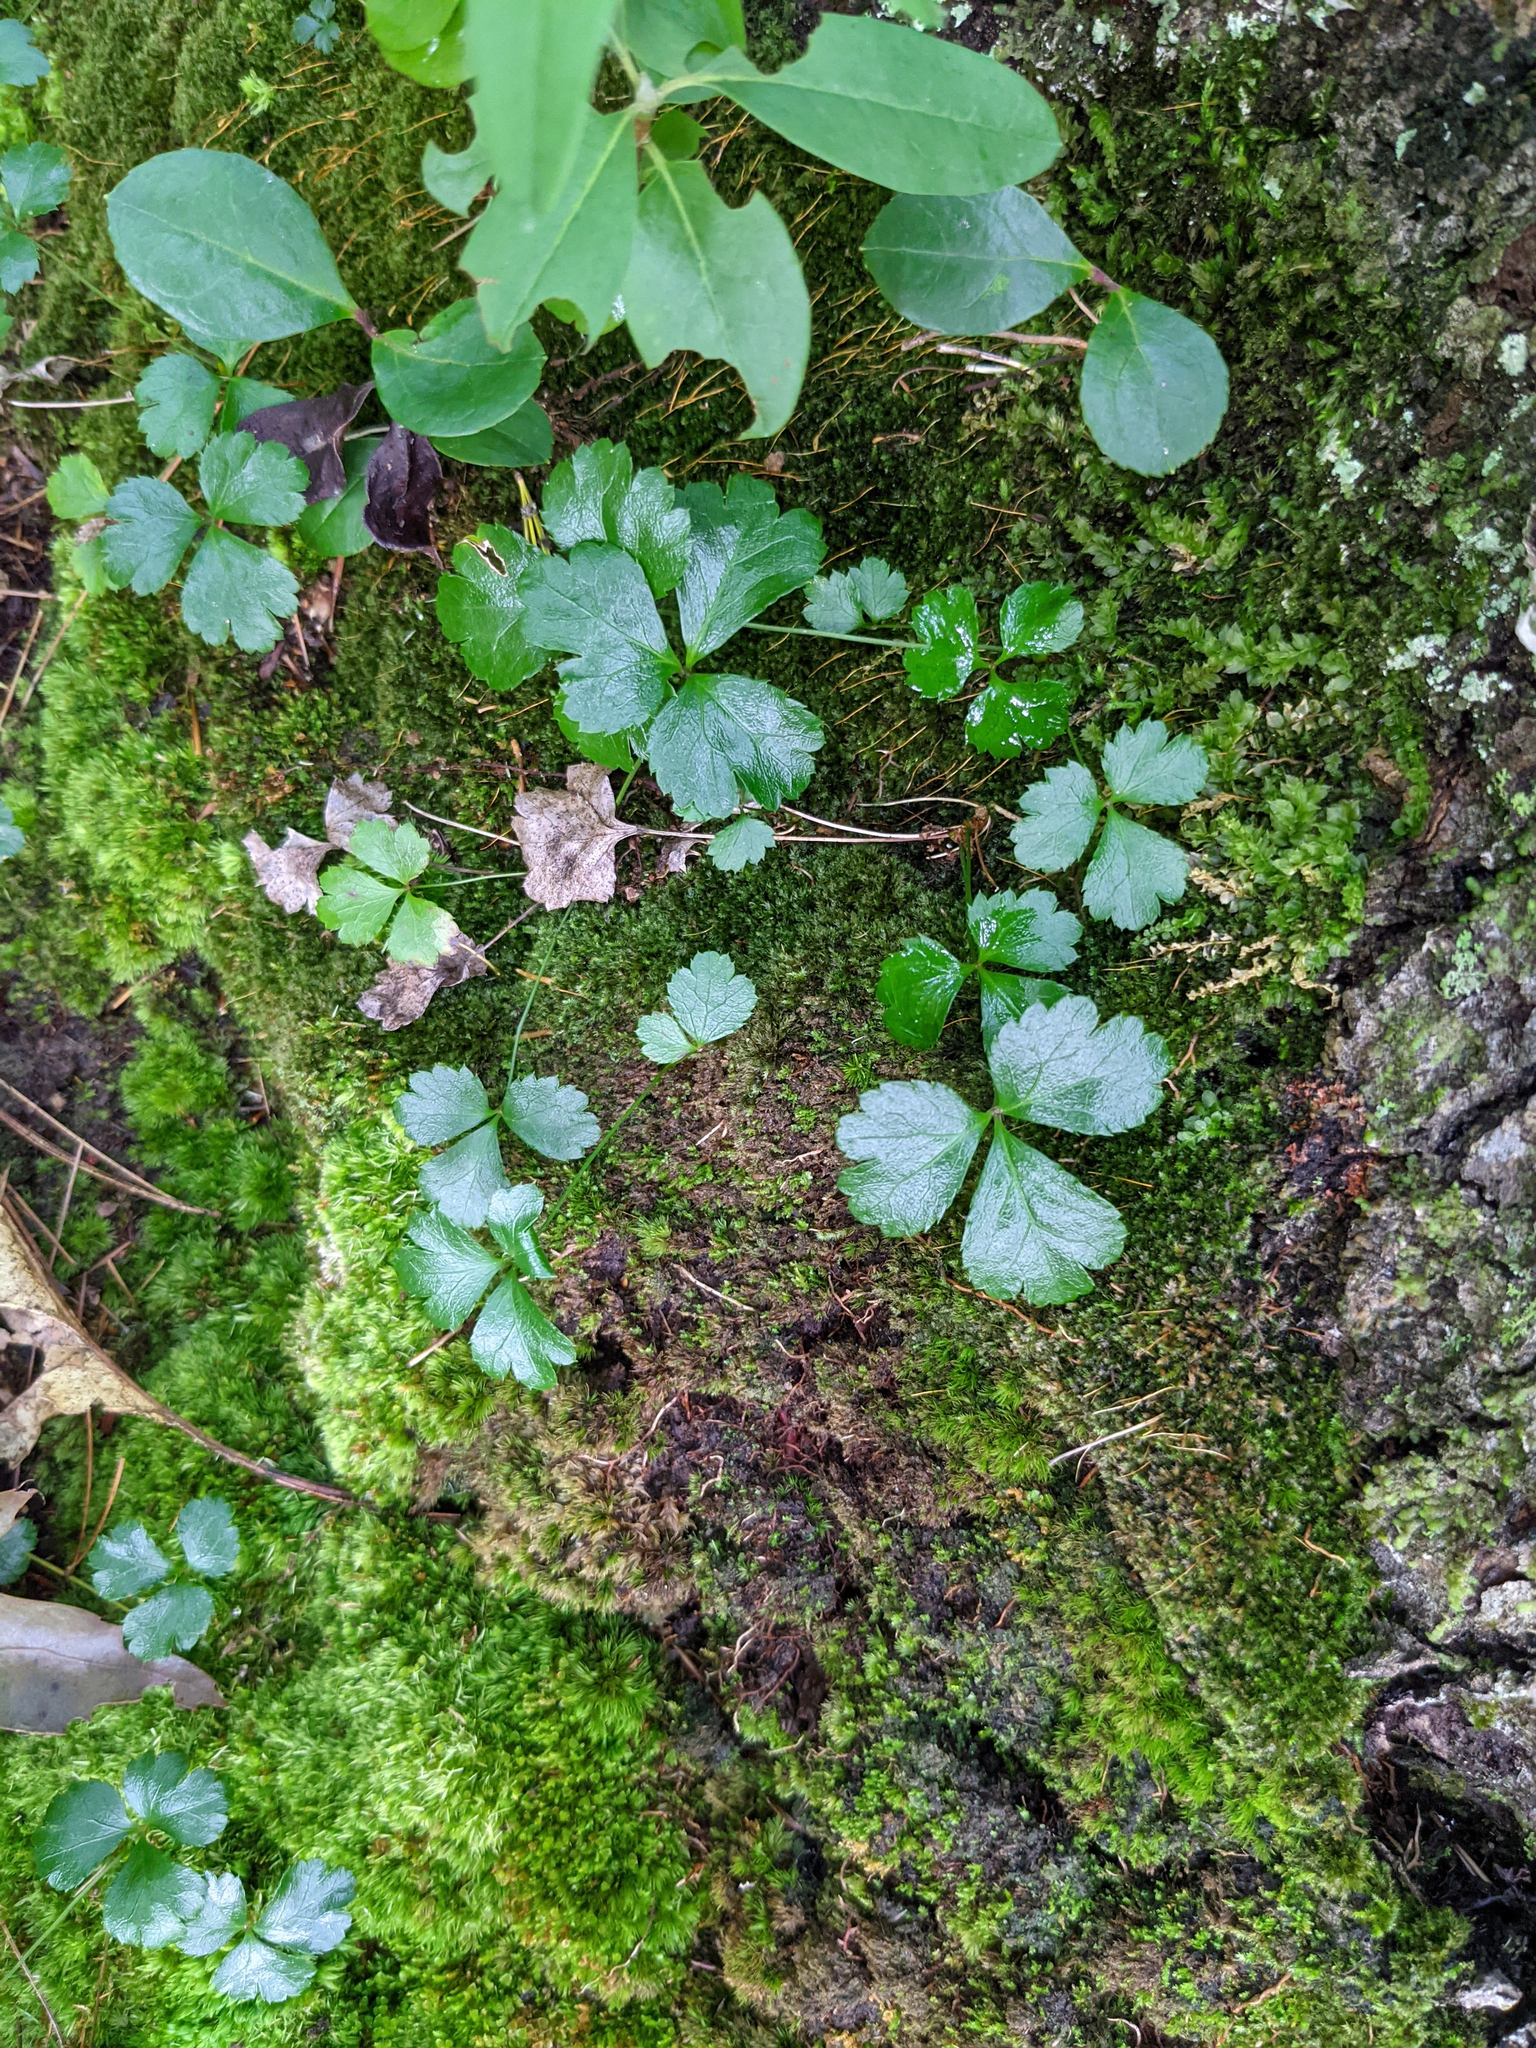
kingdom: Plantae
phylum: Tracheophyta
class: Magnoliopsida
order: Ranunculales
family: Ranunculaceae
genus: Coptis
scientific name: Coptis trifolia
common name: Canker-root
